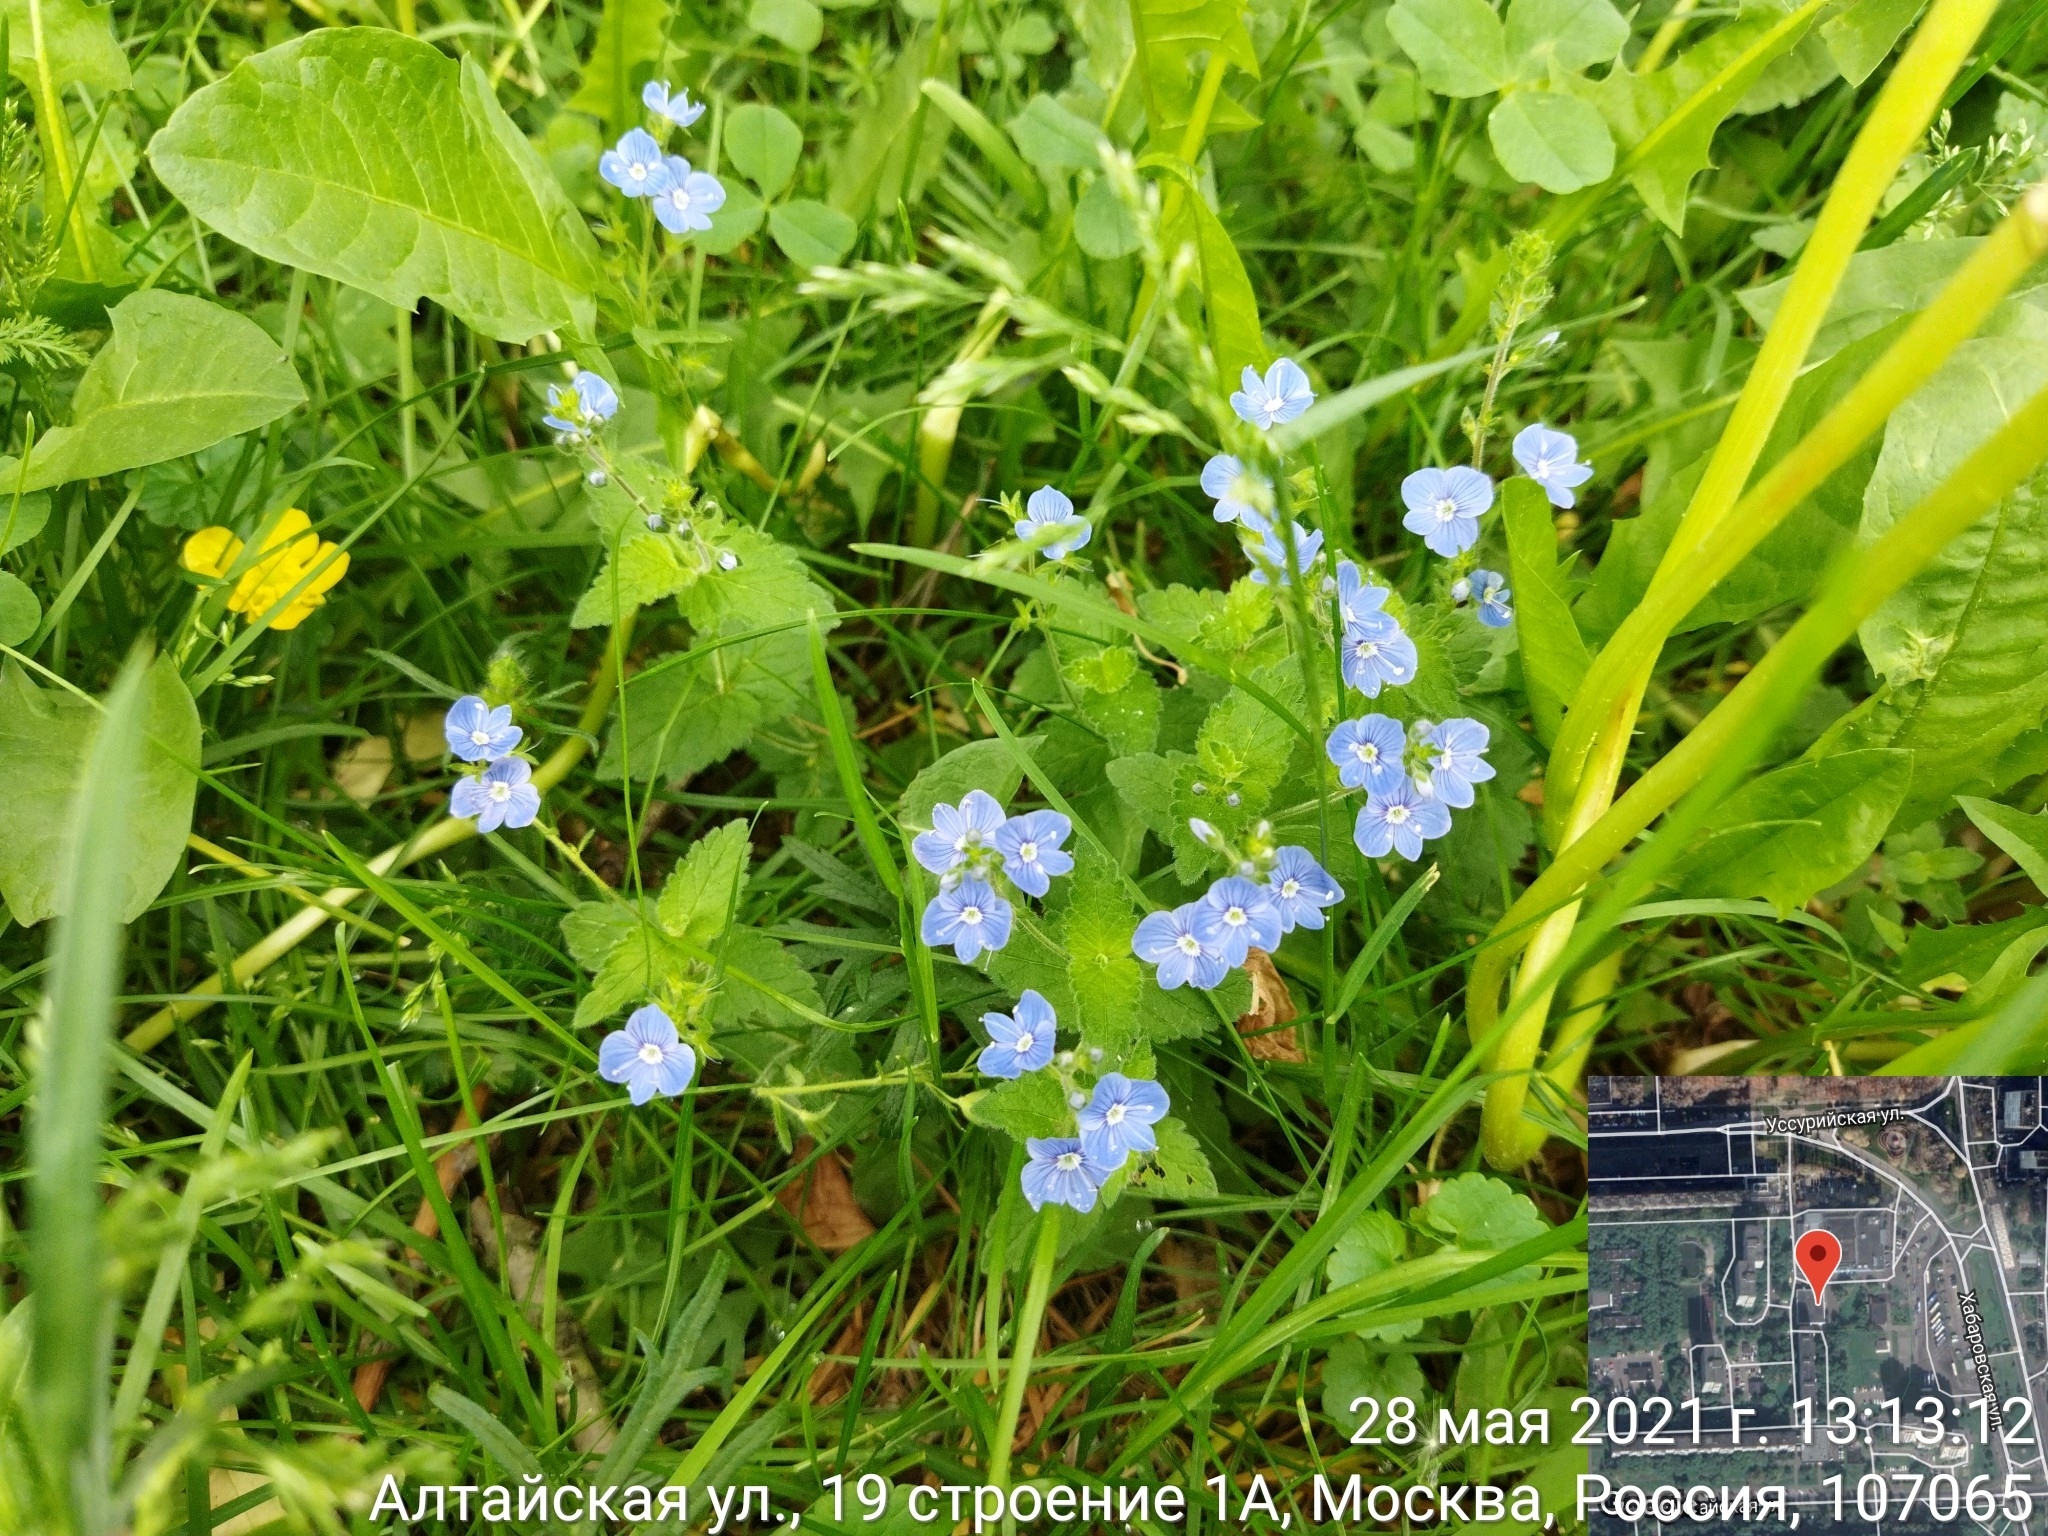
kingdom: Plantae
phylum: Tracheophyta
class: Magnoliopsida
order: Lamiales
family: Plantaginaceae
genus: Veronica
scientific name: Veronica chamaedrys
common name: Germander speedwell
